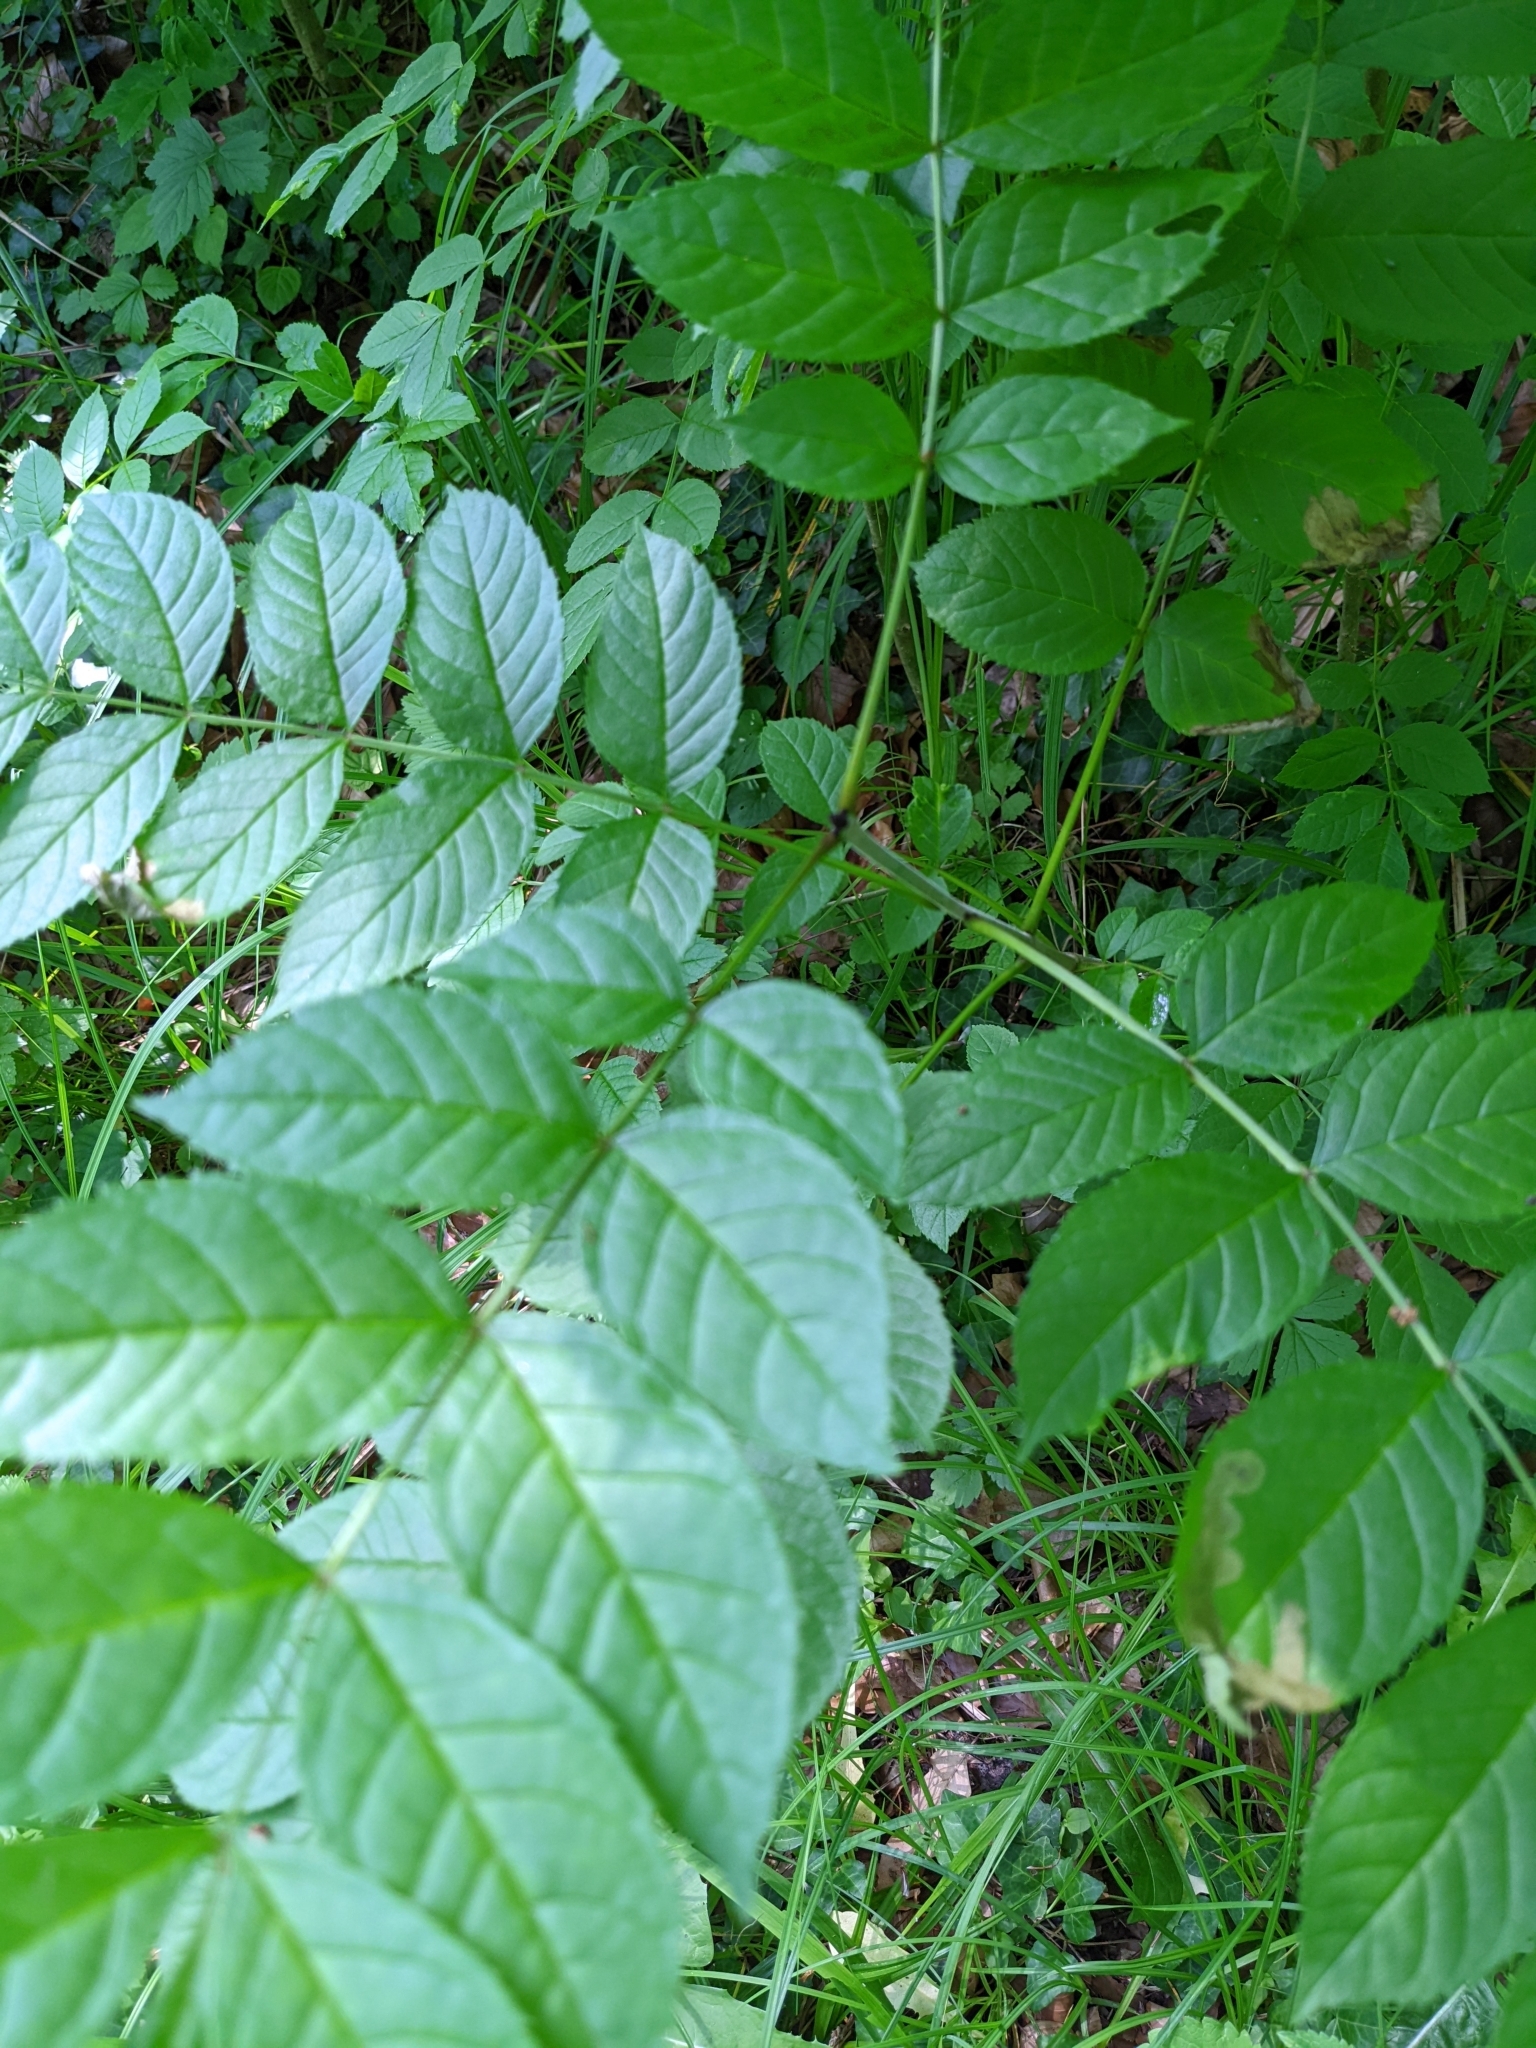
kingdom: Plantae
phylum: Tracheophyta
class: Magnoliopsida
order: Lamiales
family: Oleaceae
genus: Fraxinus
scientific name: Fraxinus excelsior
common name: European ash
